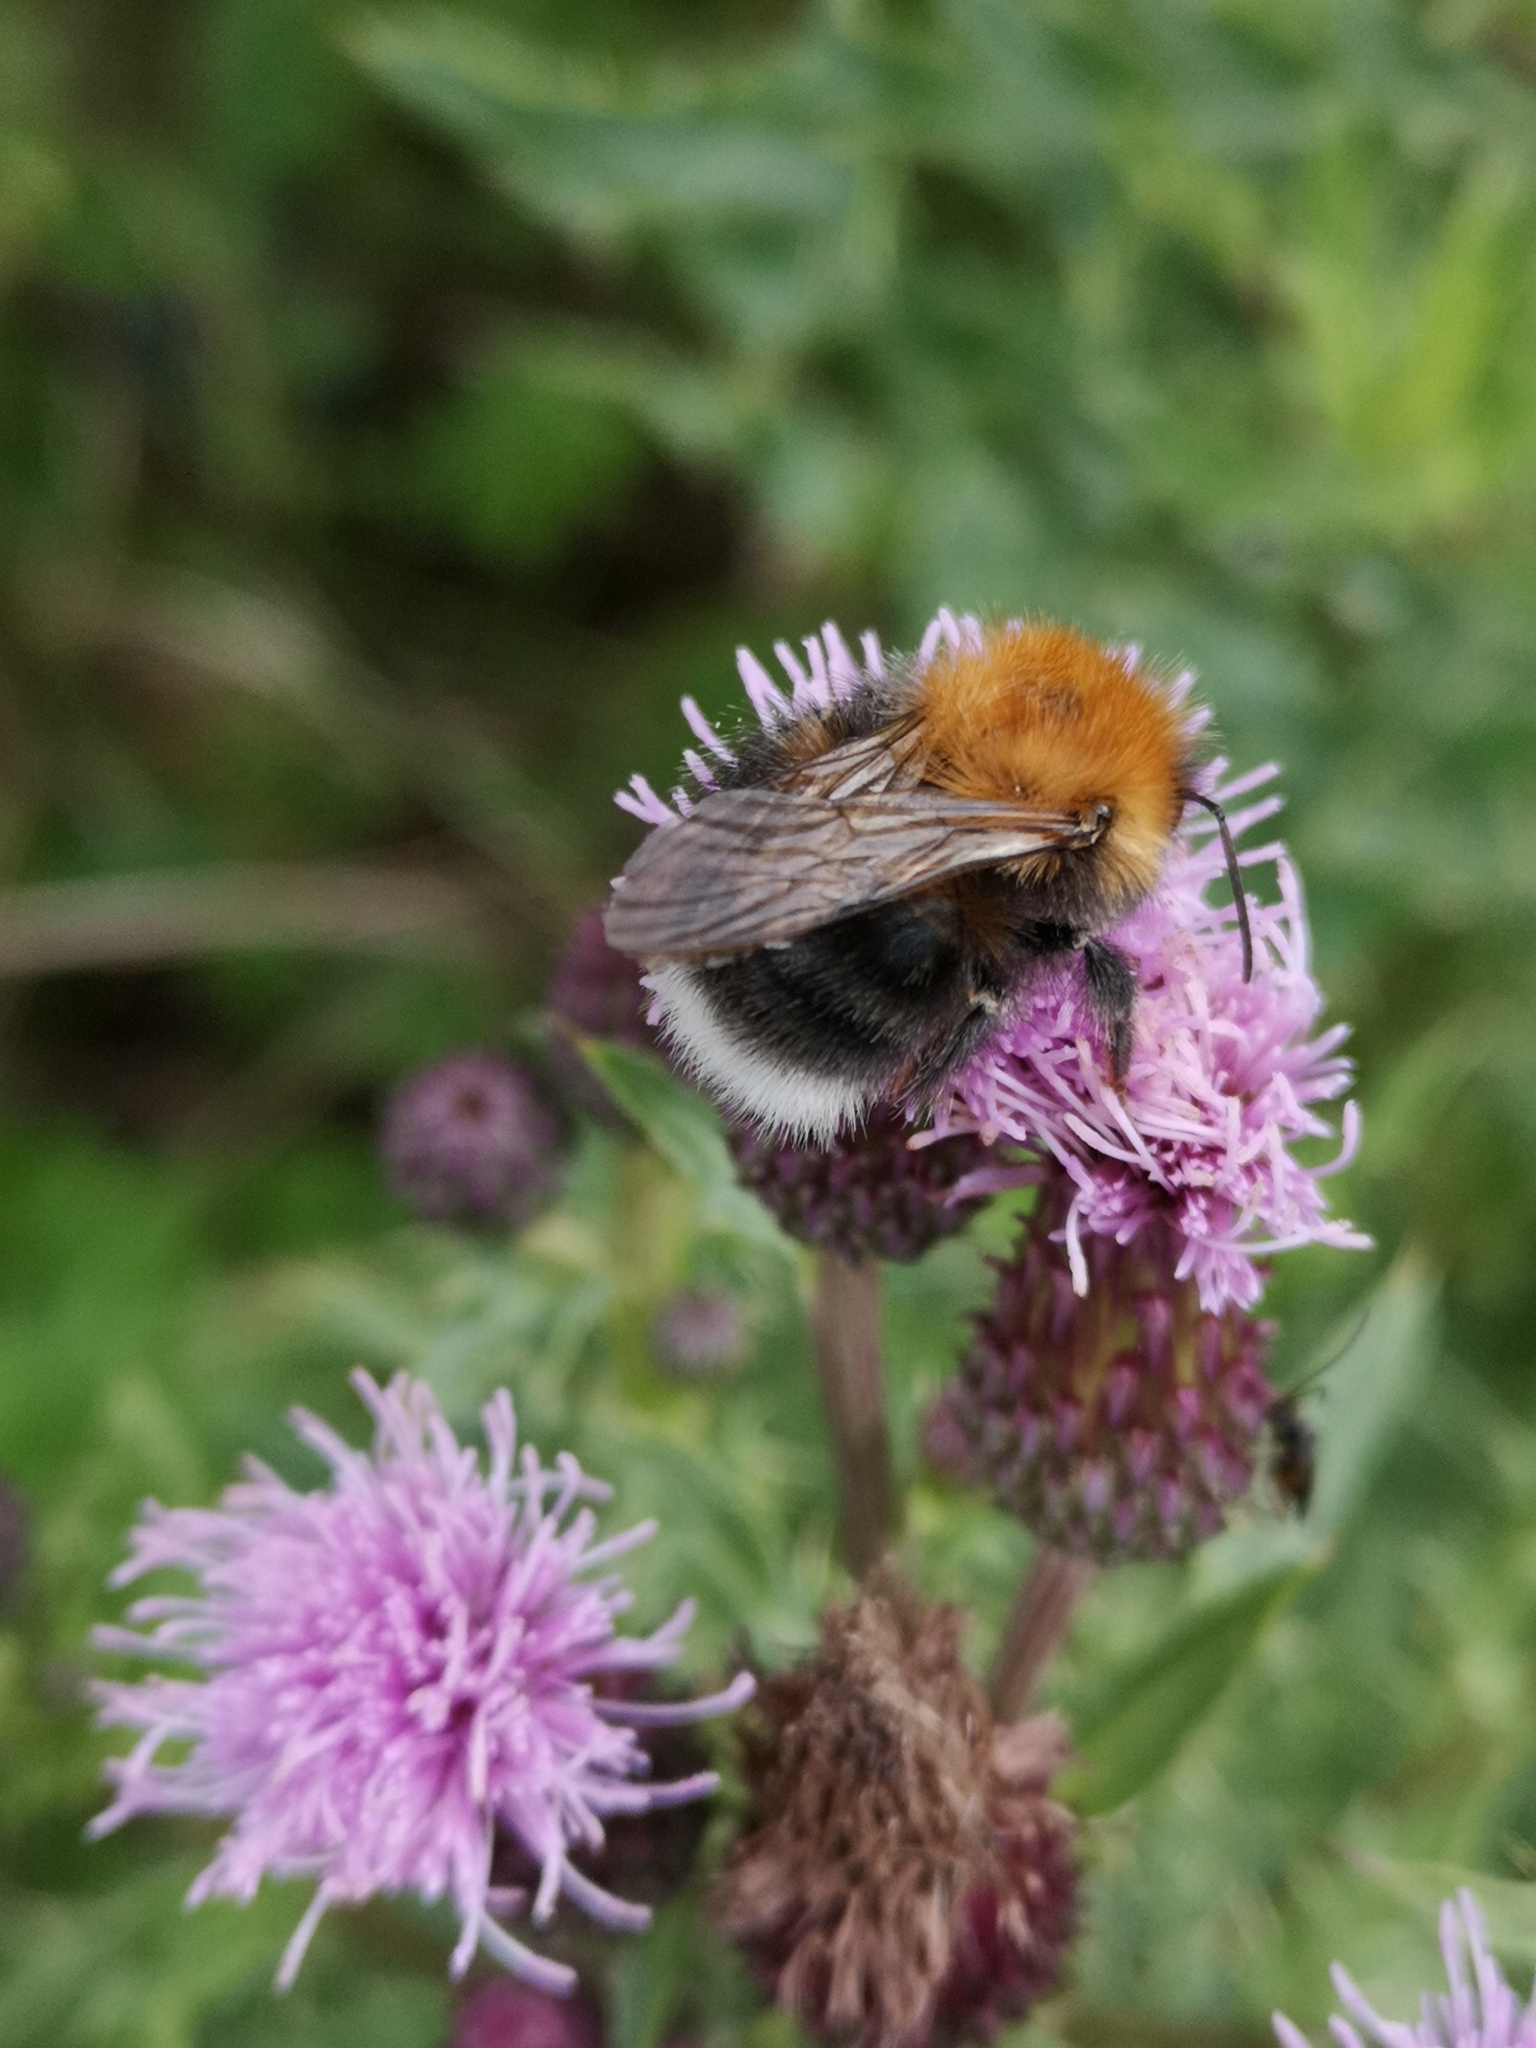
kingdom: Animalia
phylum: Arthropoda
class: Insecta
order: Hymenoptera
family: Apidae
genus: Bombus
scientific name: Bombus hypnorum
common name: New garden bumblebee
